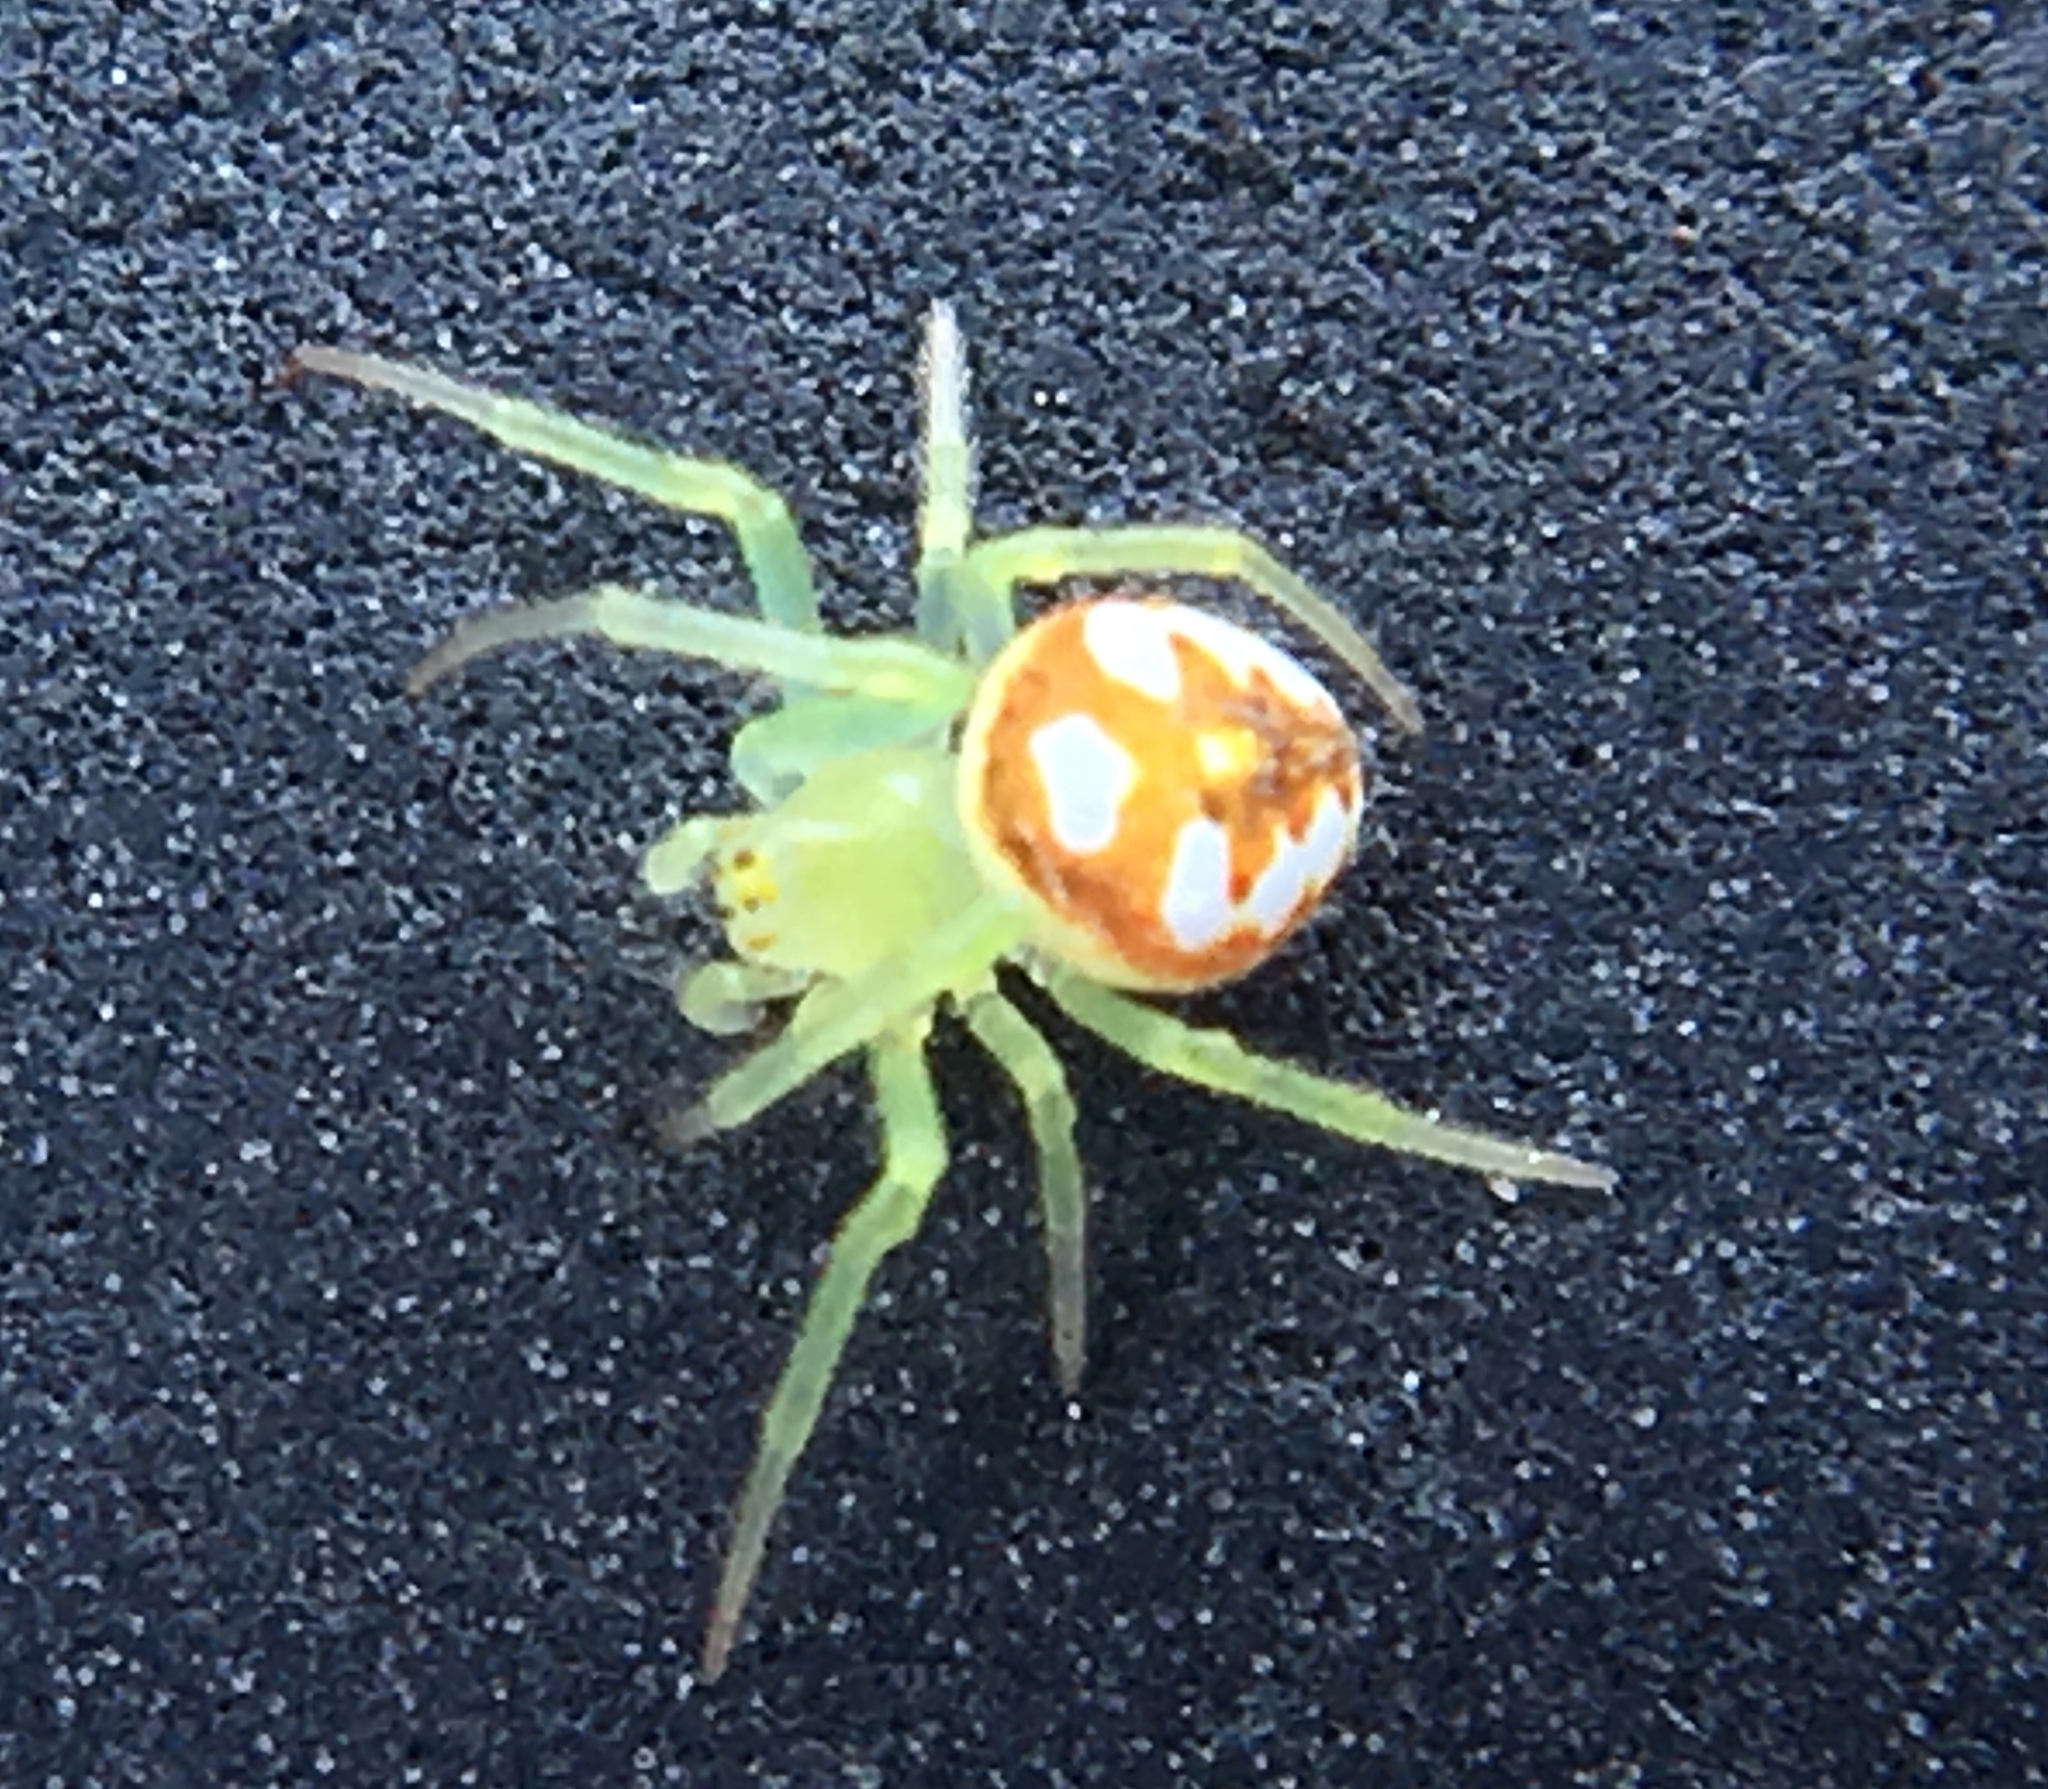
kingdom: Animalia
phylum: Arthropoda
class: Arachnida
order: Araneae
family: Araneidae
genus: Araneus
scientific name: Araneus guttulatus
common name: Red-backed orbweaver
